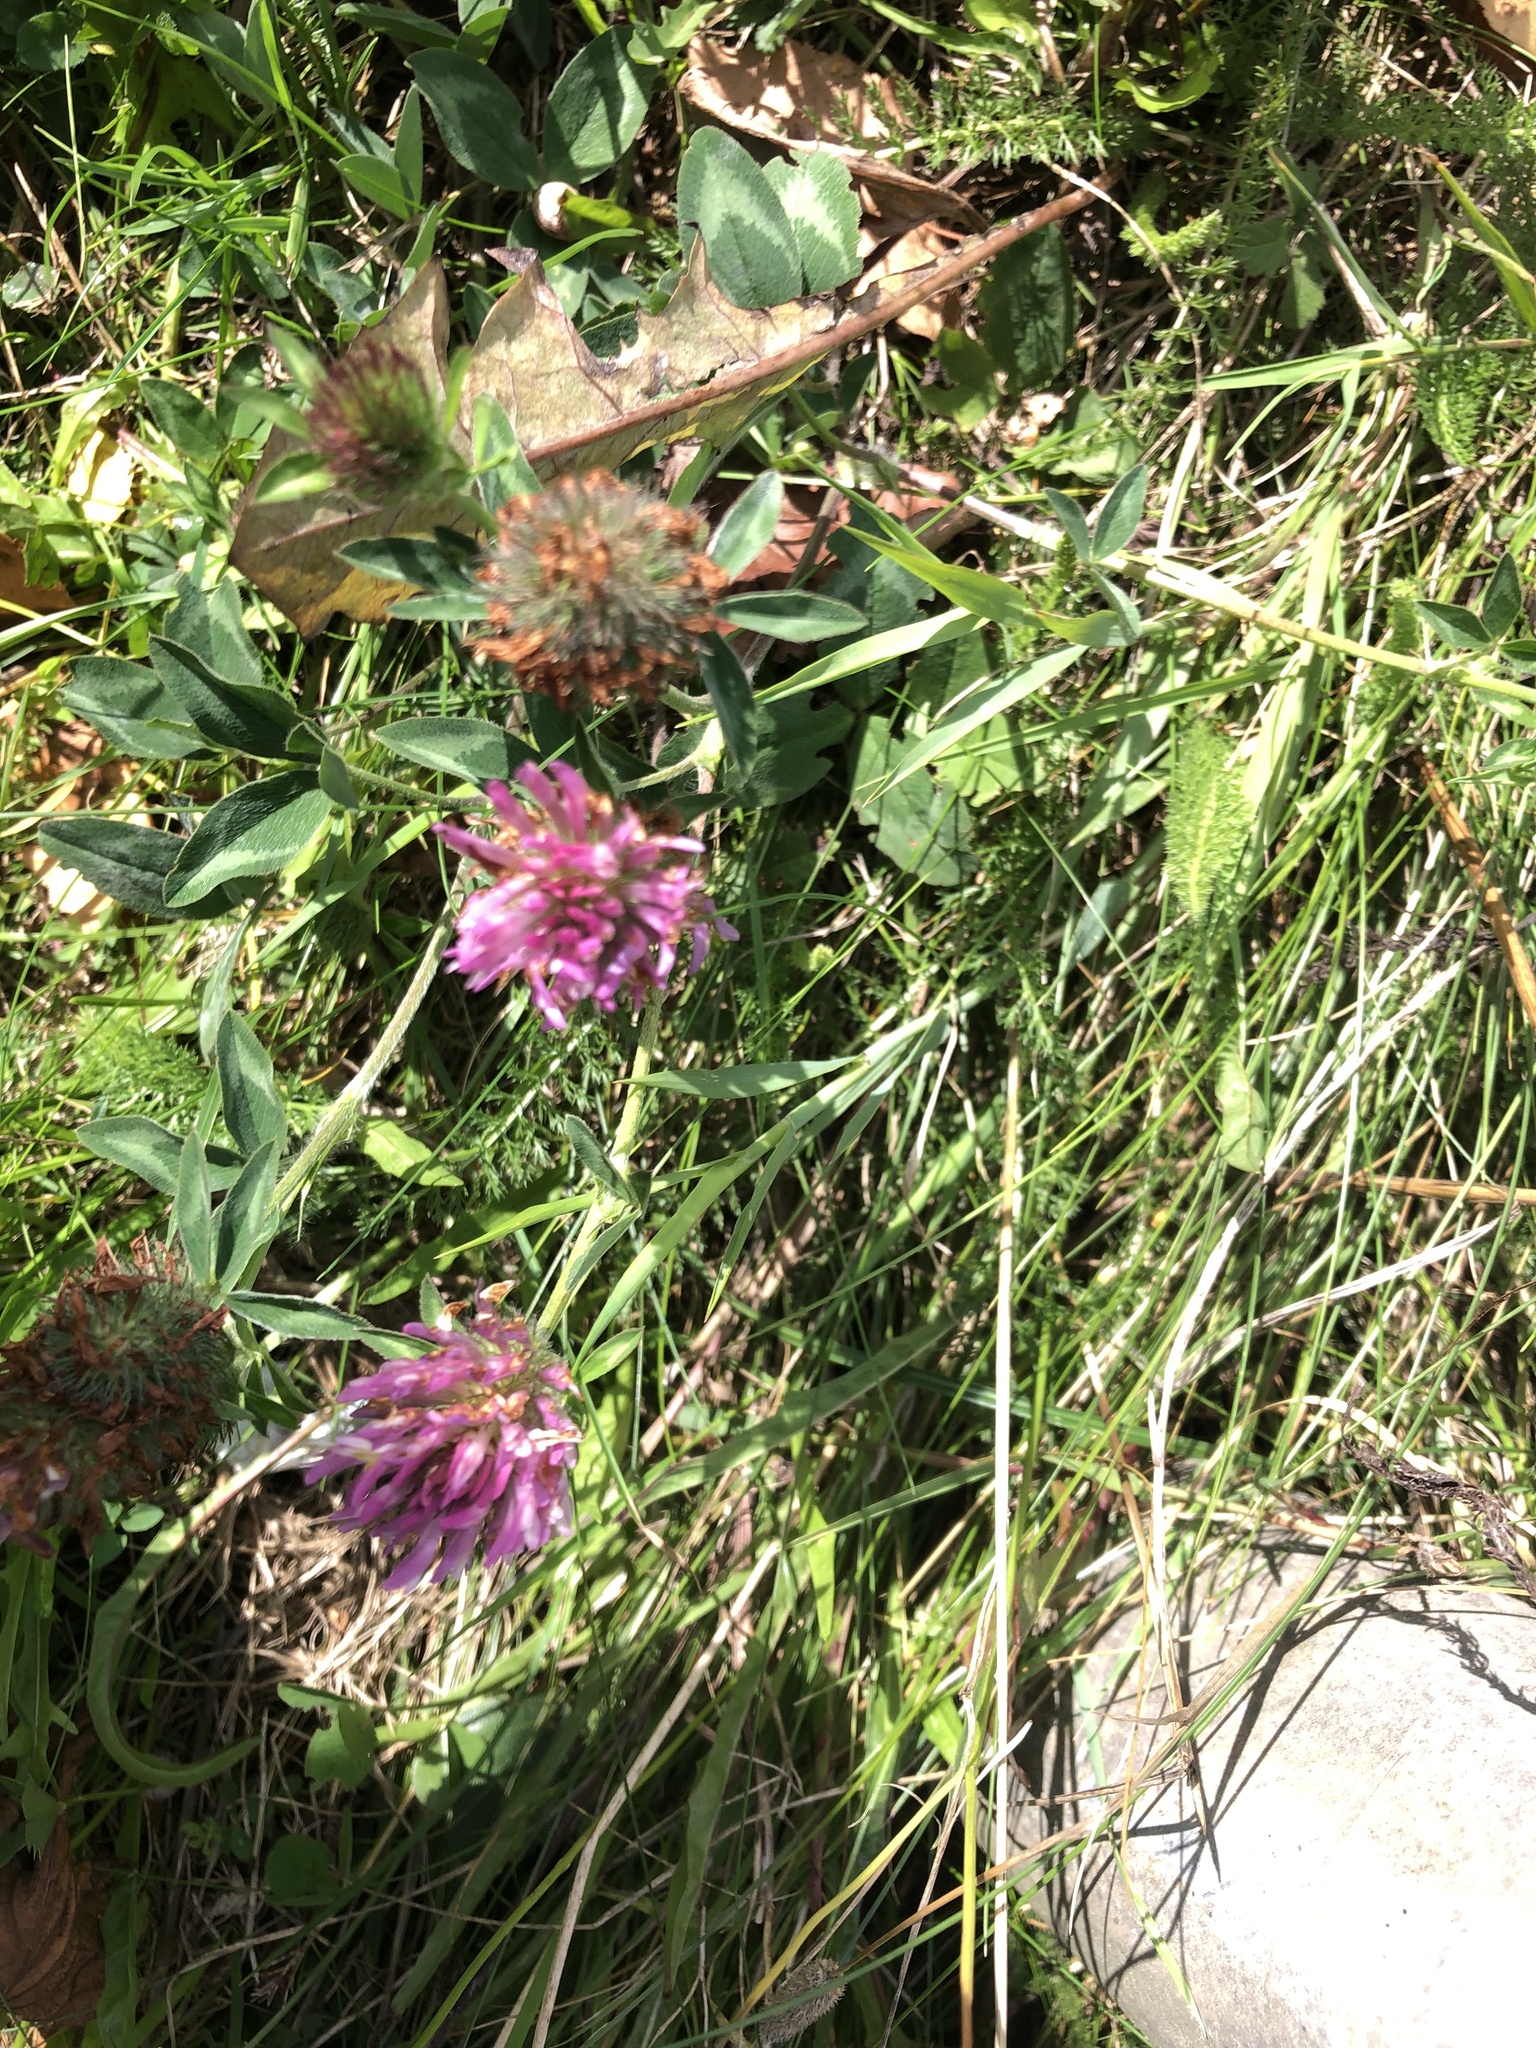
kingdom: Plantae
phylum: Tracheophyta
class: Magnoliopsida
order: Fabales
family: Fabaceae
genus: Trifolium
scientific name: Trifolium pratense
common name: Red clover
